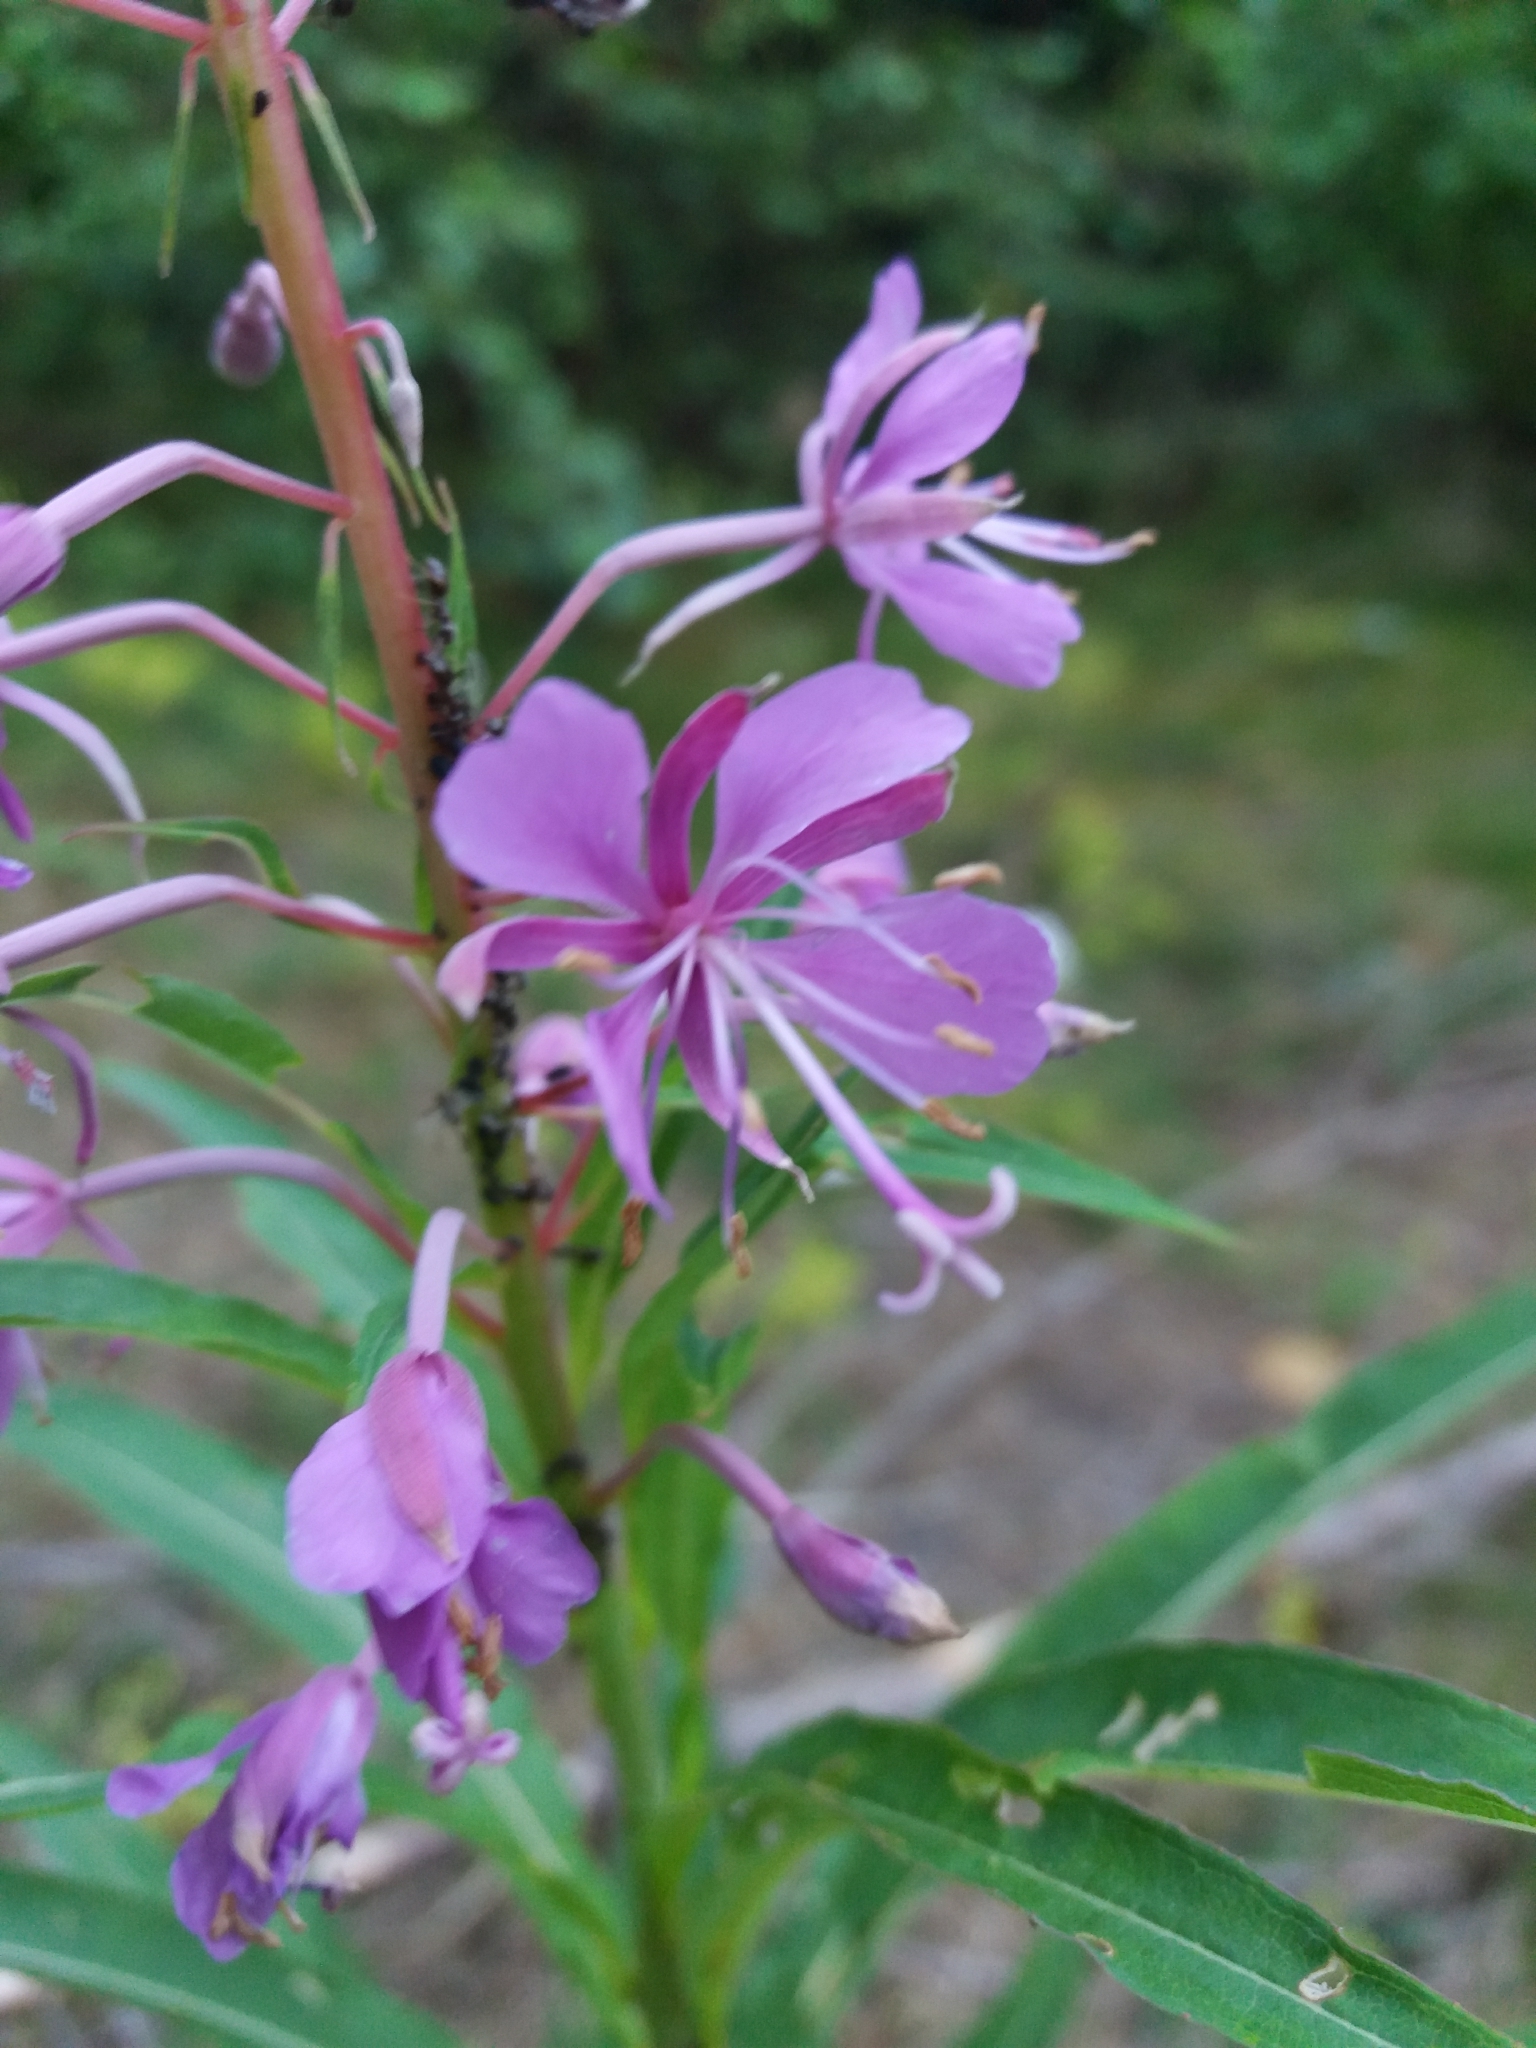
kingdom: Plantae
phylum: Tracheophyta
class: Magnoliopsida
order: Myrtales
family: Onagraceae
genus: Chamaenerion
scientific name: Chamaenerion angustifolium
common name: Fireweed
